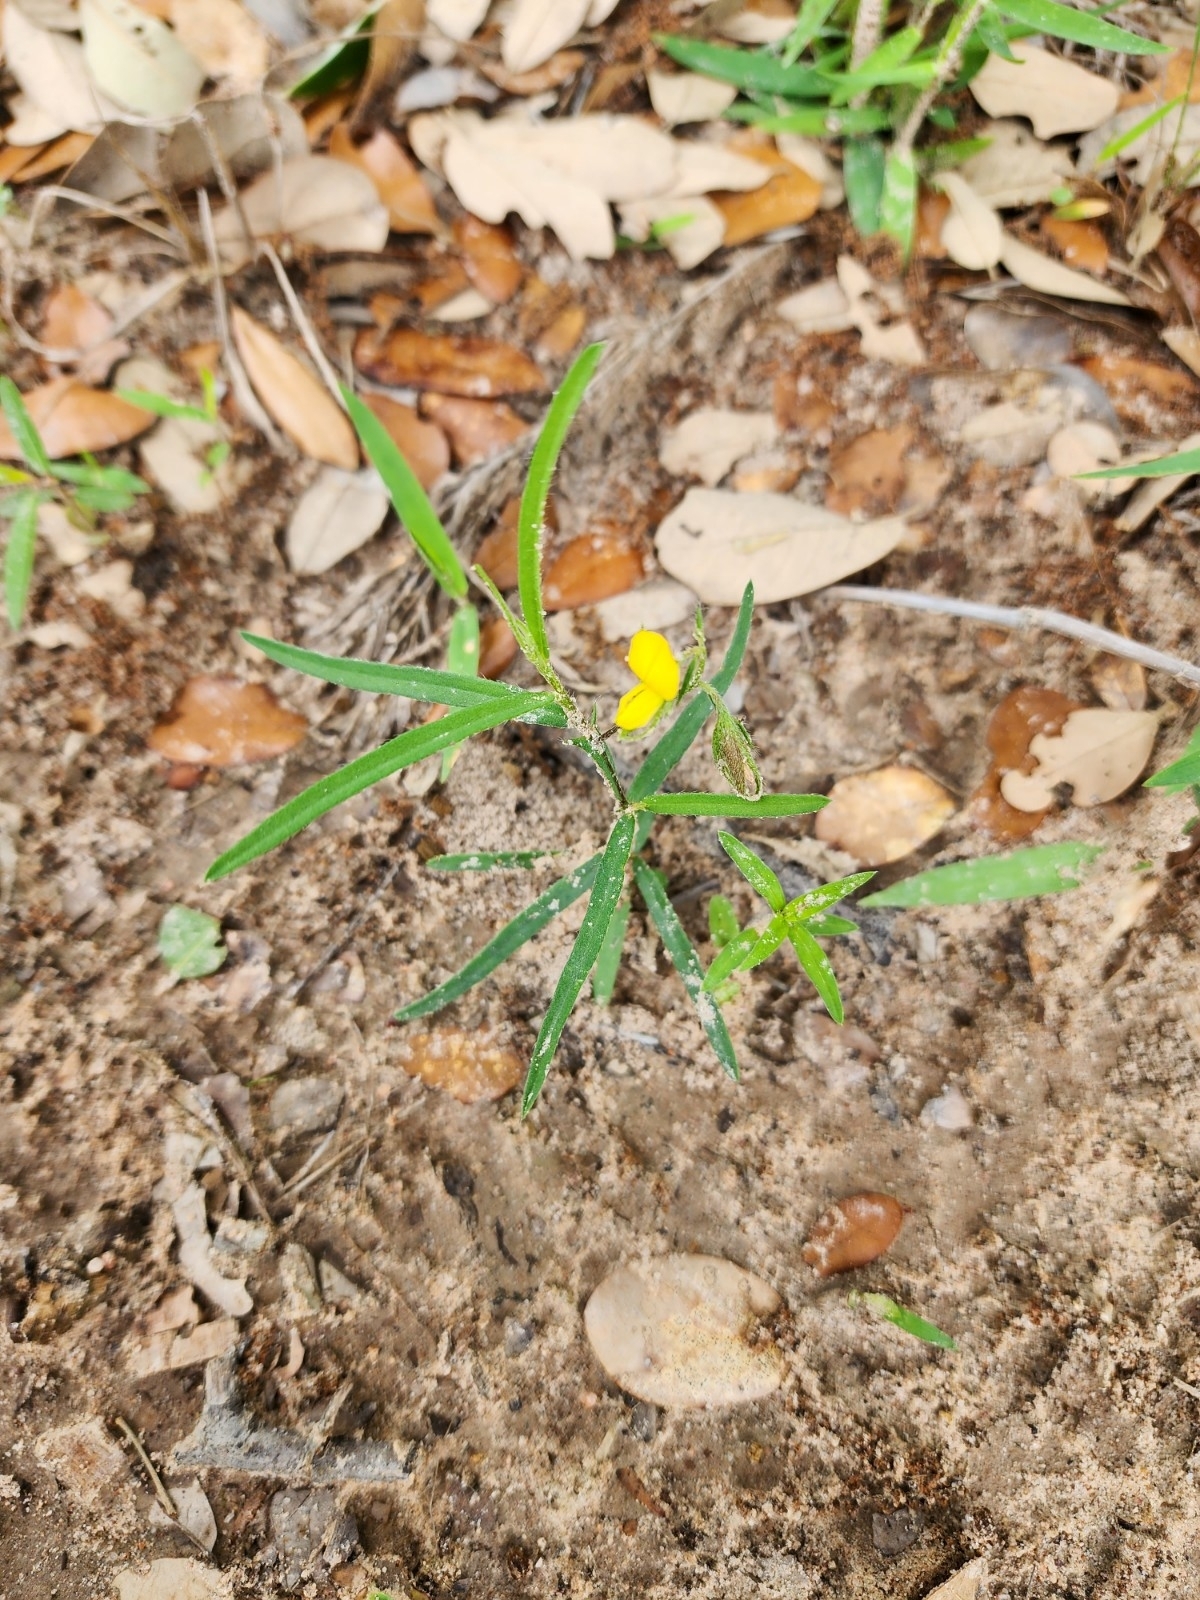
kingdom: Plantae
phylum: Tracheophyta
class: Magnoliopsida
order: Fabales
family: Fabaceae
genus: Crotalaria
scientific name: Crotalaria sagittalis
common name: Arrowhead rattlebox
